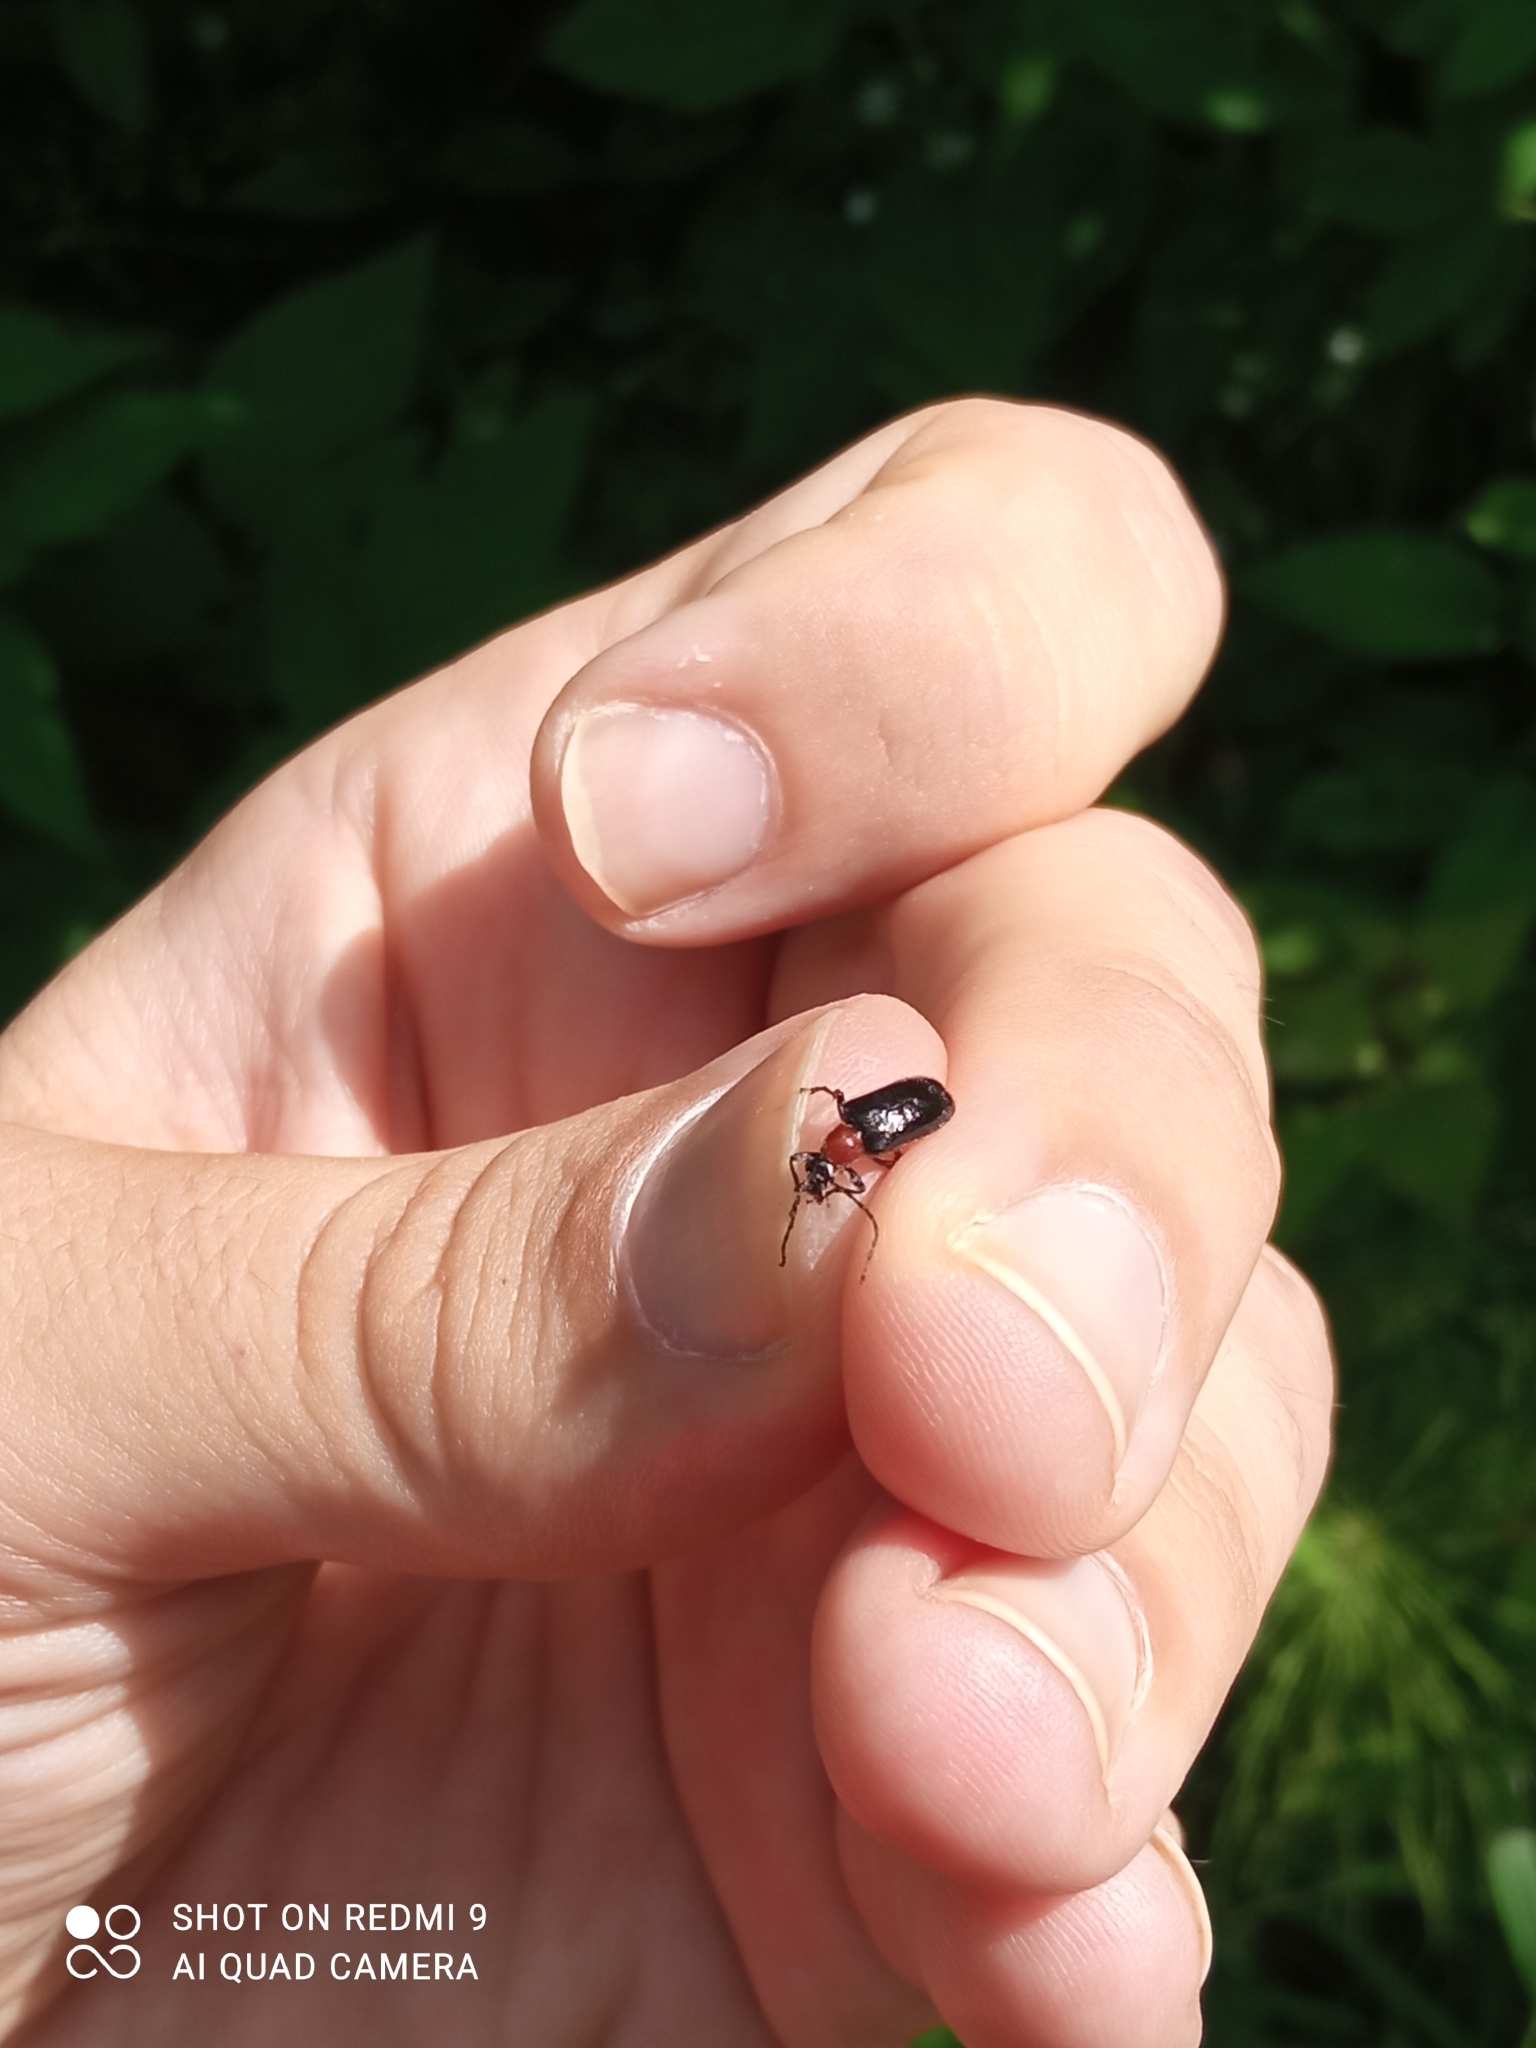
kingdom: Animalia
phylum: Arthropoda
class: Insecta
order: Coleoptera
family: Cerambycidae
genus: Dinoptera
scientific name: Dinoptera collaris
